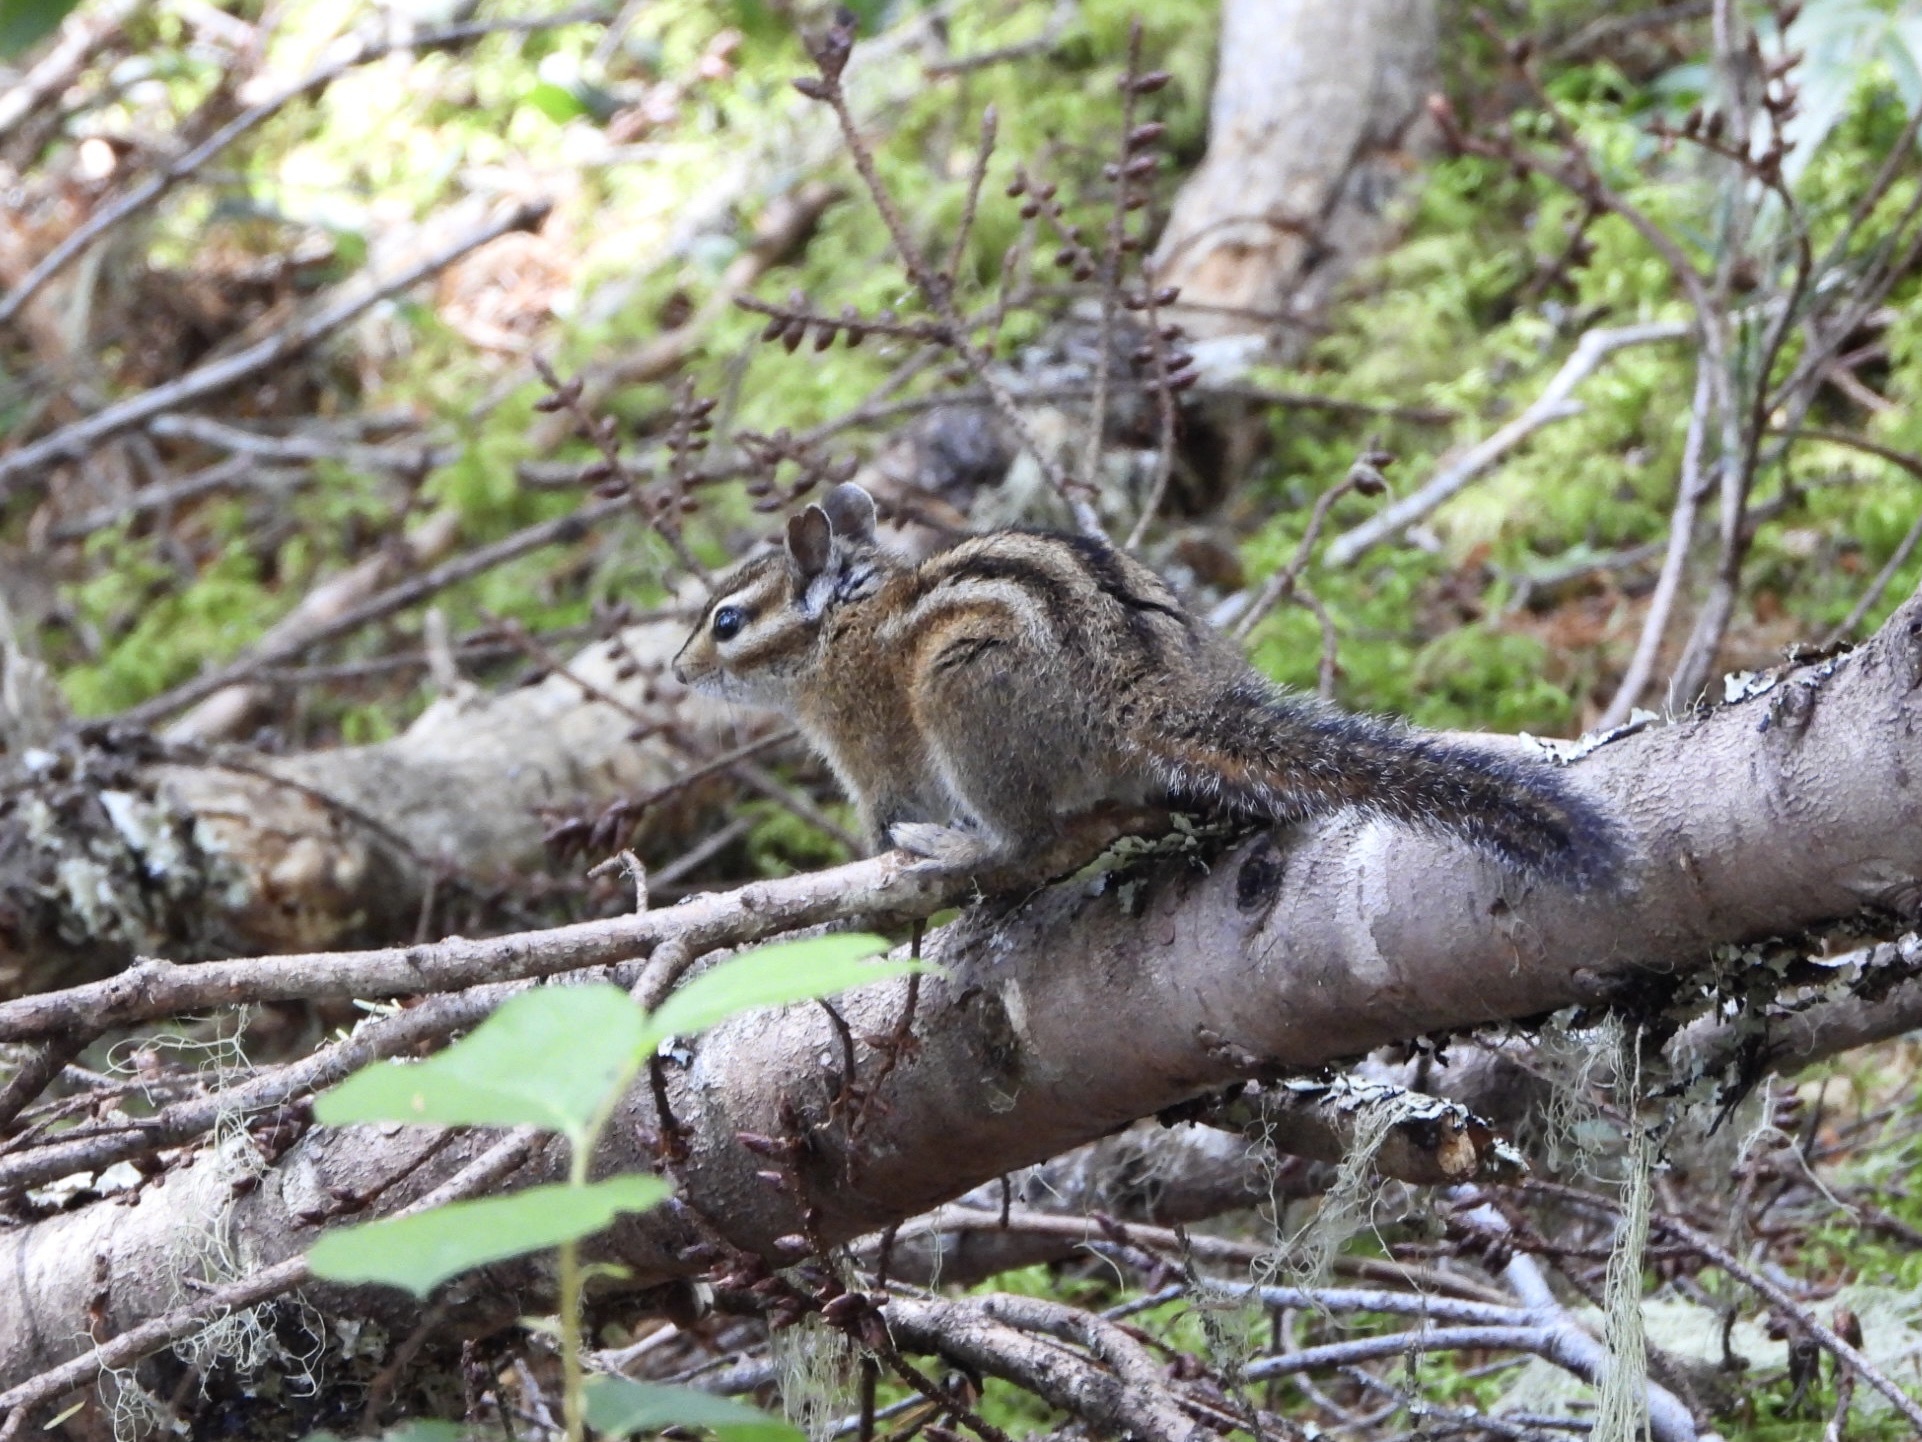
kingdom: Animalia
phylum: Chordata
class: Mammalia
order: Rodentia
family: Sciuridae
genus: Tamias
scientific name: Tamias townsendii
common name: Townsend's chipmunk
